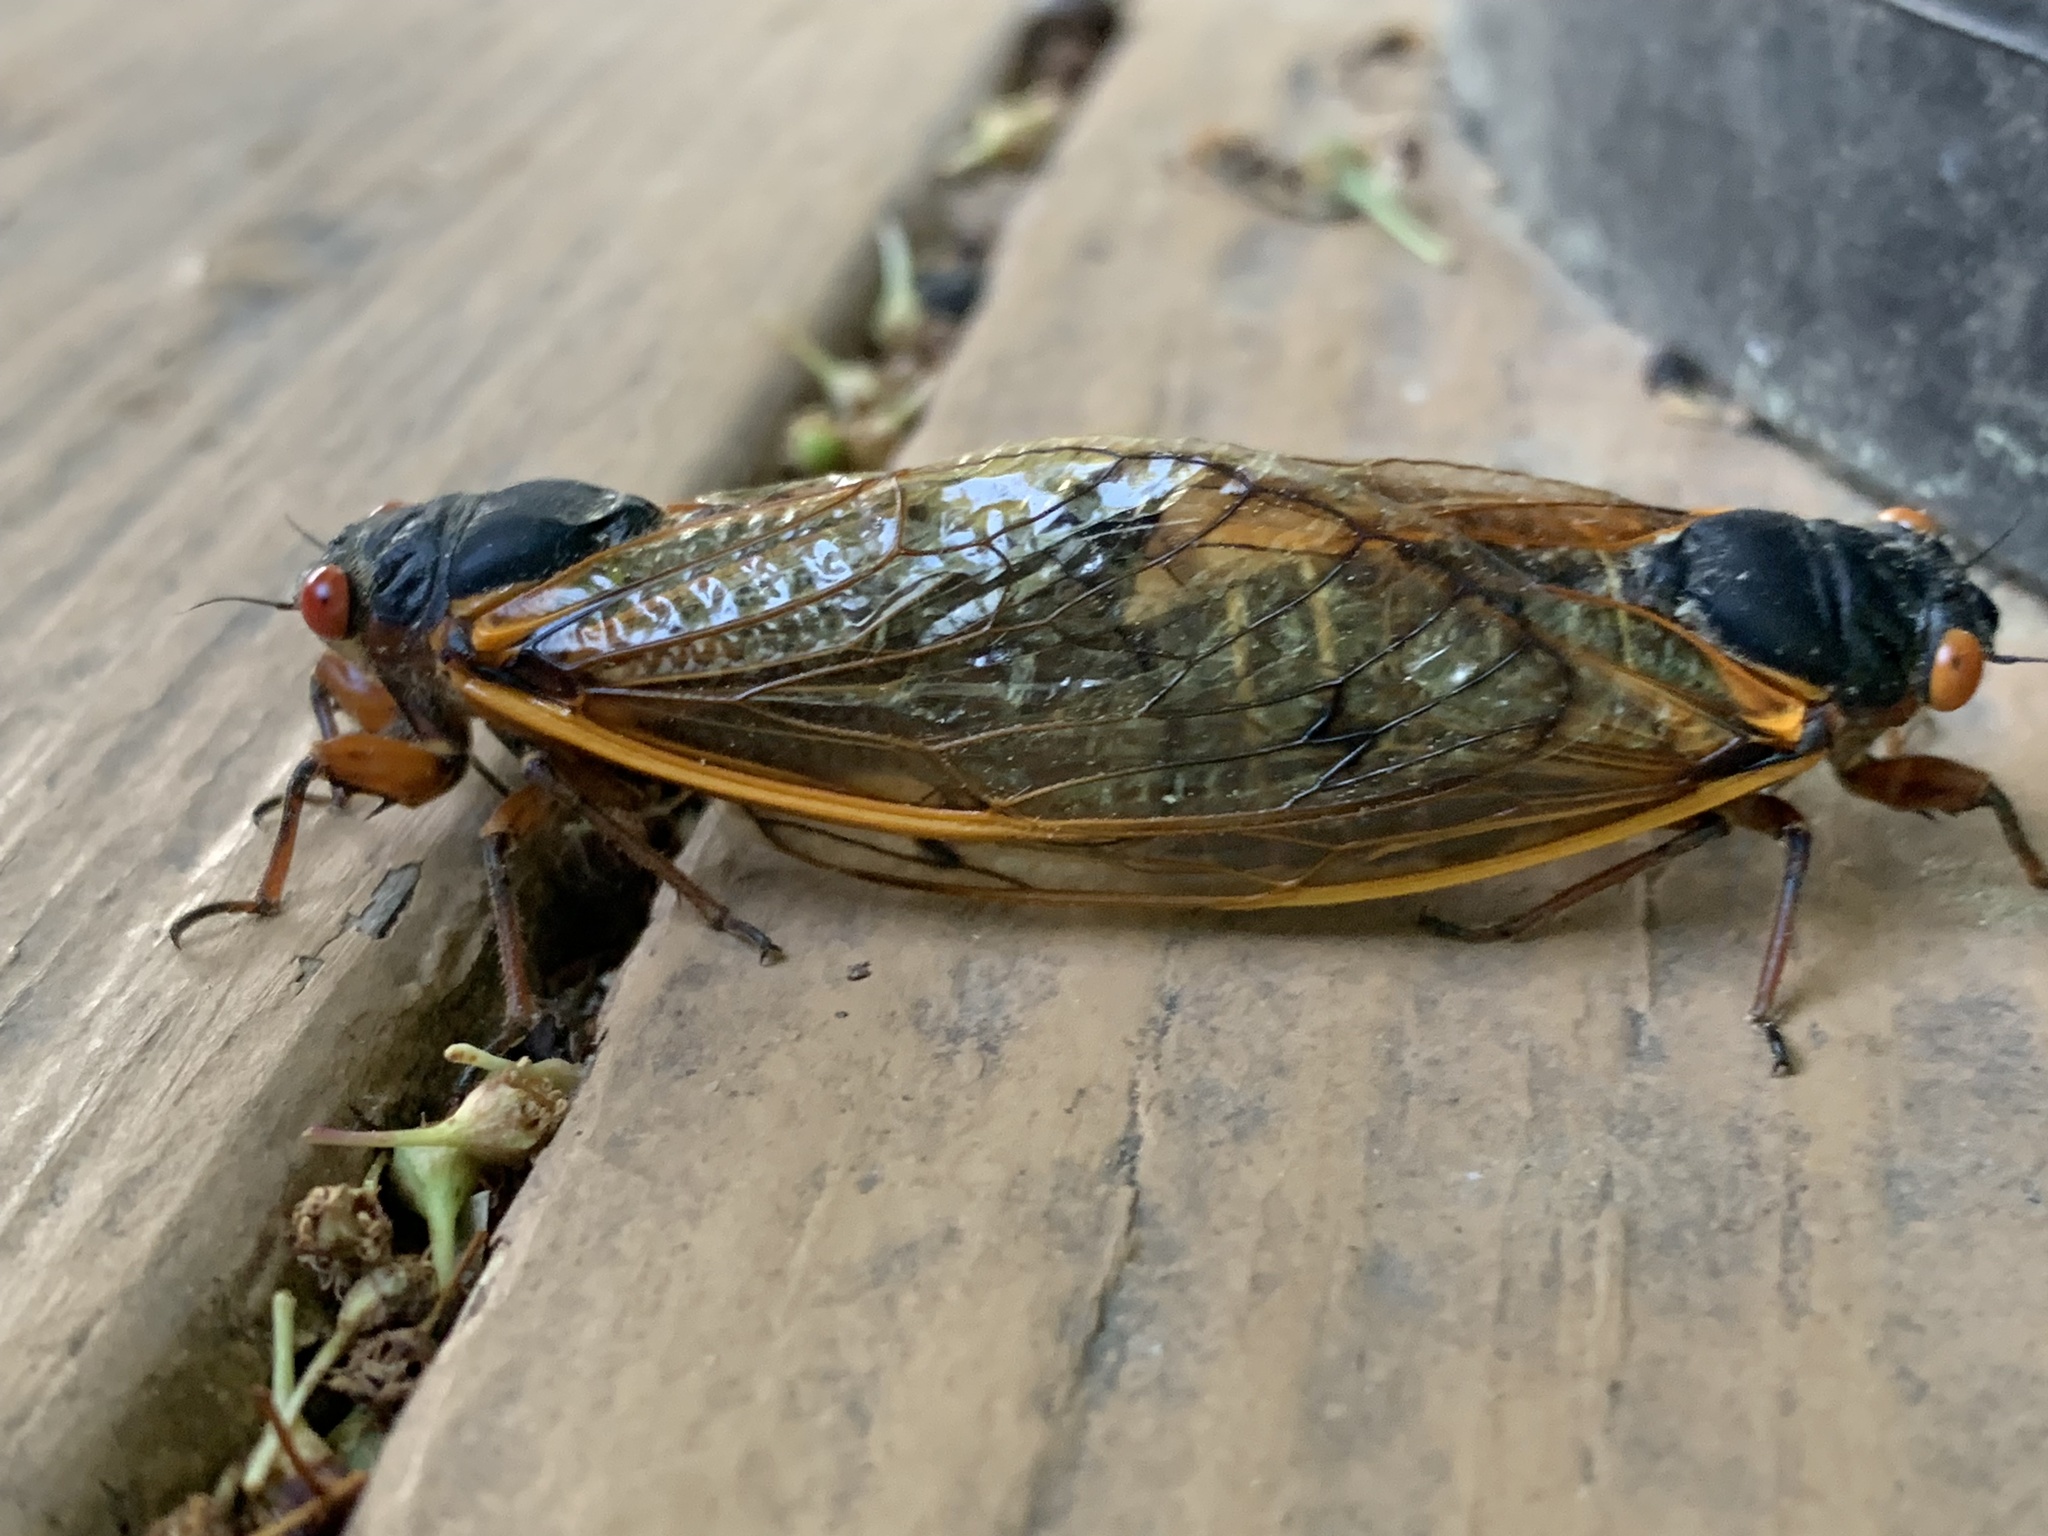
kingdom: Animalia
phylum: Arthropoda
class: Insecta
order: Hemiptera
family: Cicadidae
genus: Magicicada
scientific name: Magicicada septendecim
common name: Periodical cicada
